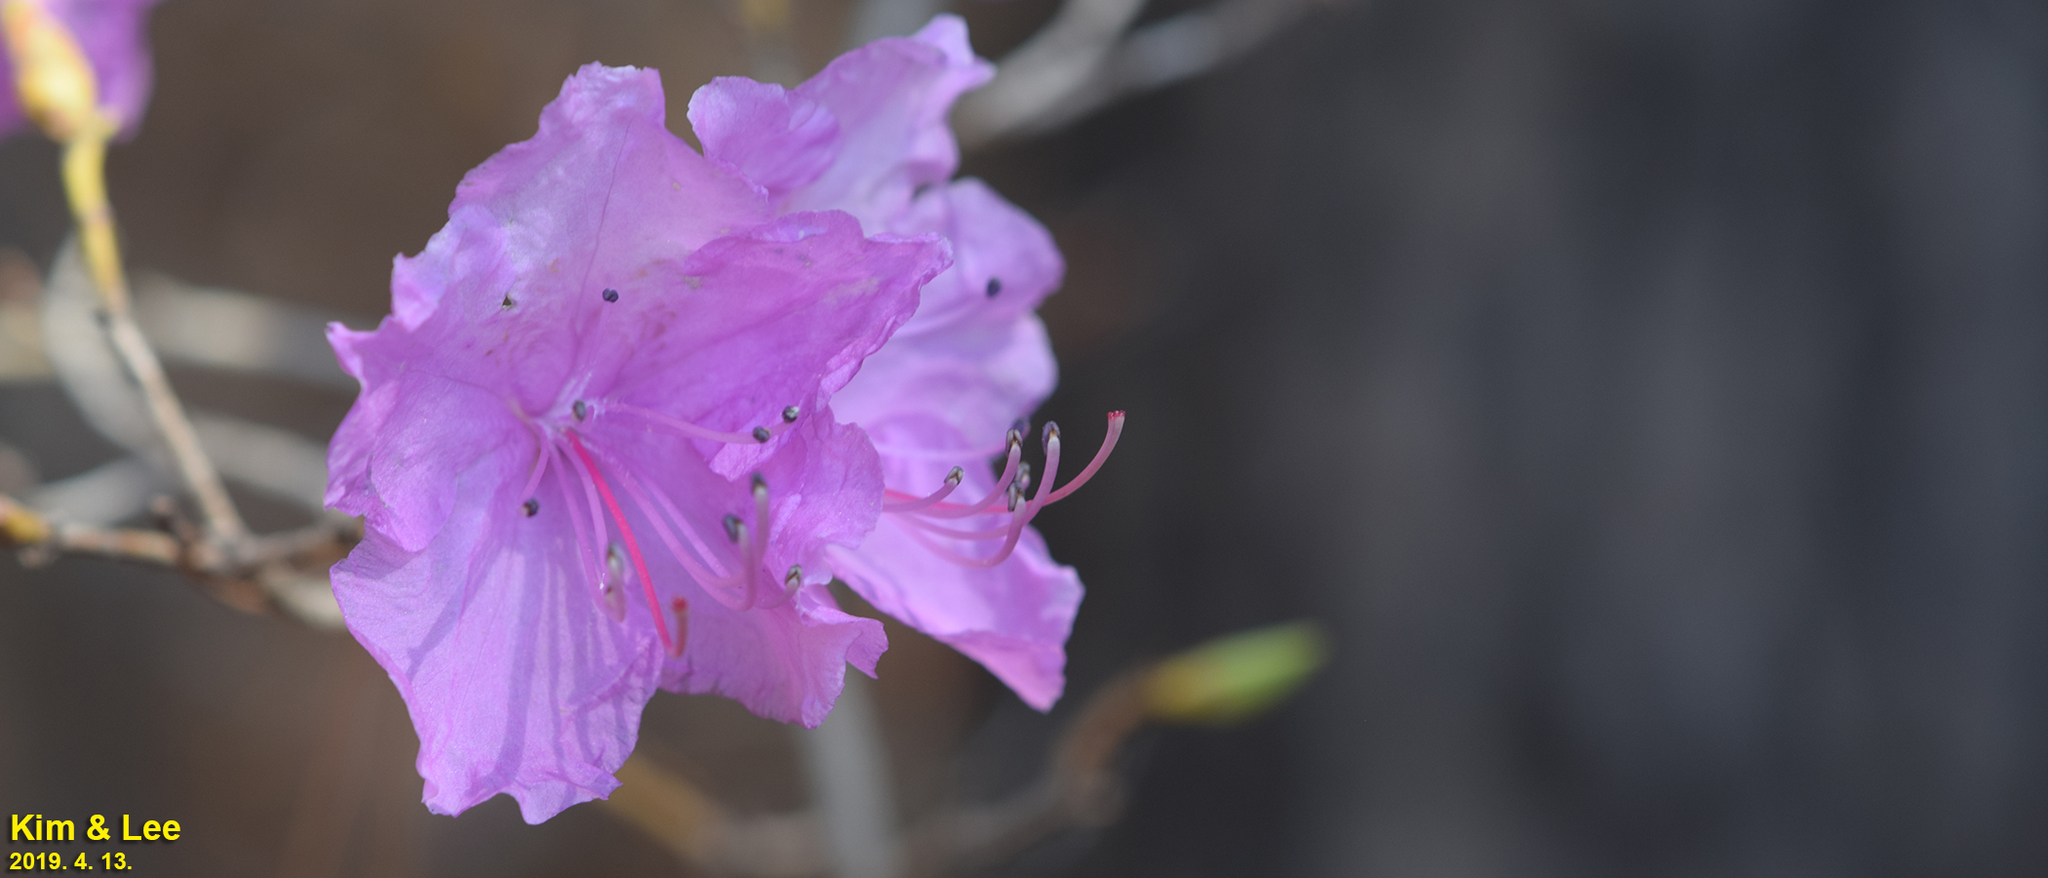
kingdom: Plantae
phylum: Tracheophyta
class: Magnoliopsida
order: Ericales
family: Ericaceae
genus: Rhododendron
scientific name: Rhododendron mucronulatum
